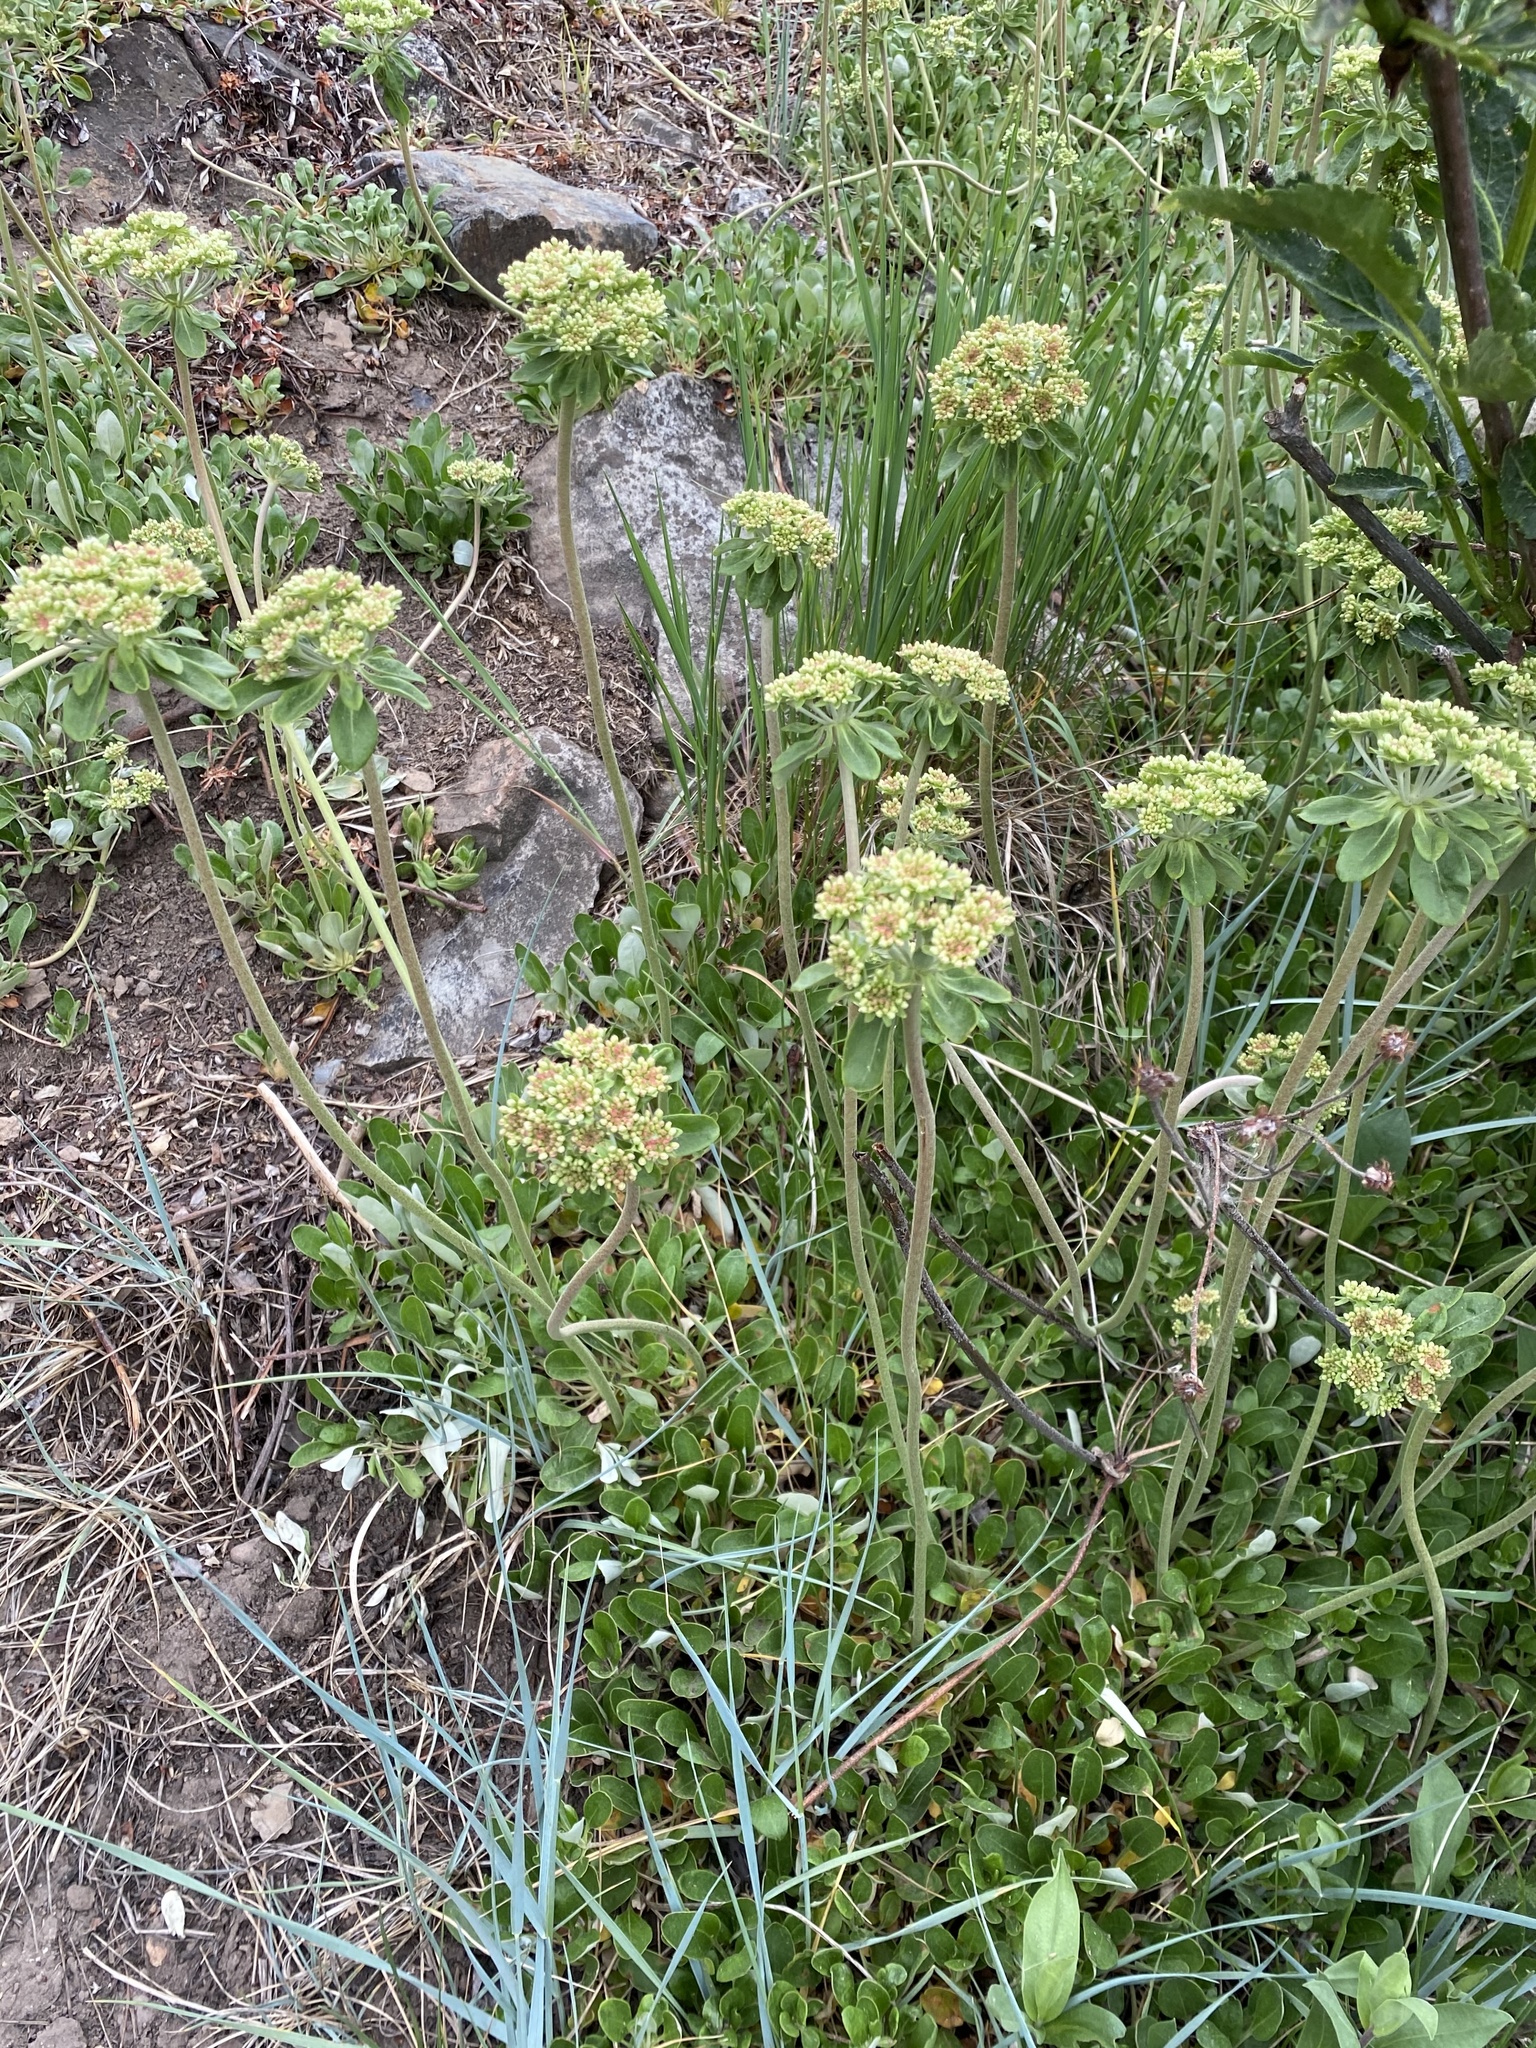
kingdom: Plantae
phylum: Tracheophyta
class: Magnoliopsida
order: Caryophyllales
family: Polygonaceae
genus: Eriogonum
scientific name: Eriogonum umbellatum
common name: Sulfur-buckwheat
